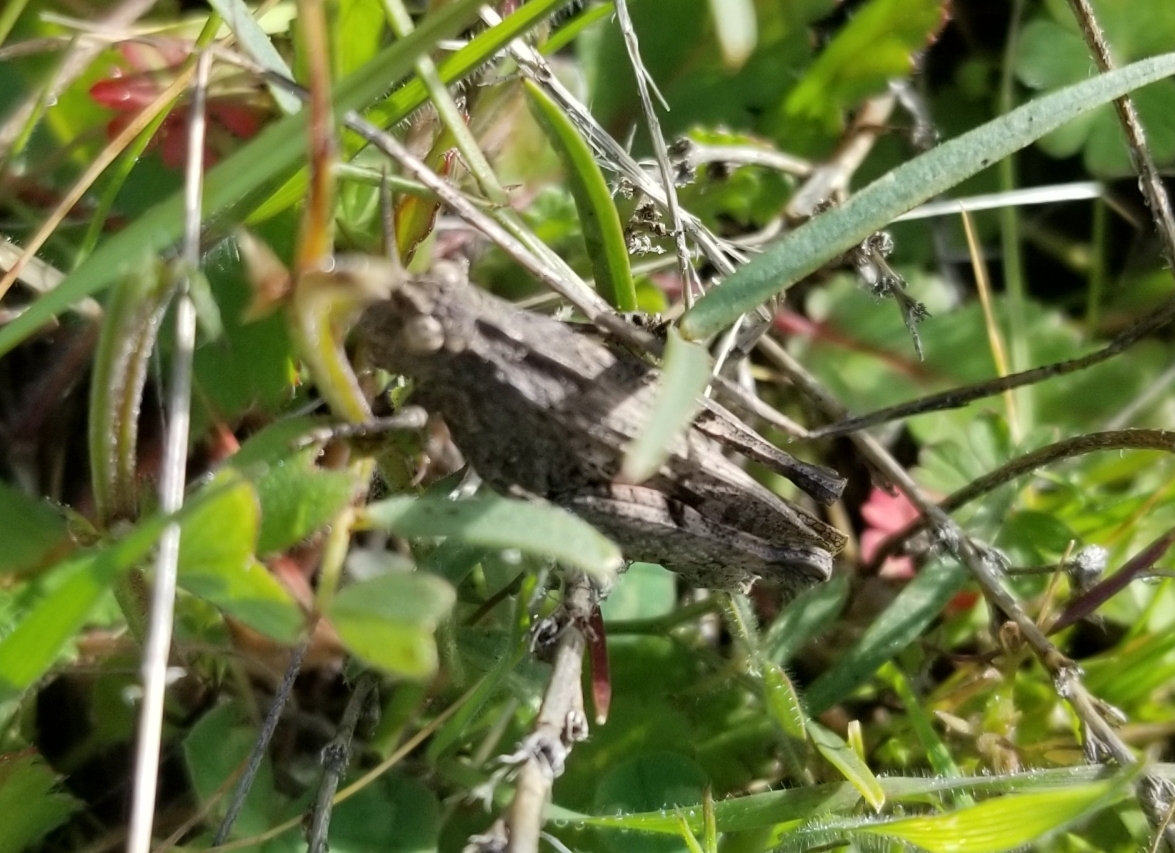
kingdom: Animalia
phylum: Arthropoda
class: Insecta
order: Orthoptera
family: Acrididae
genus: Chimarocephala
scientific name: Chimarocephala pacifica
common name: Painted meadow grasshopper
